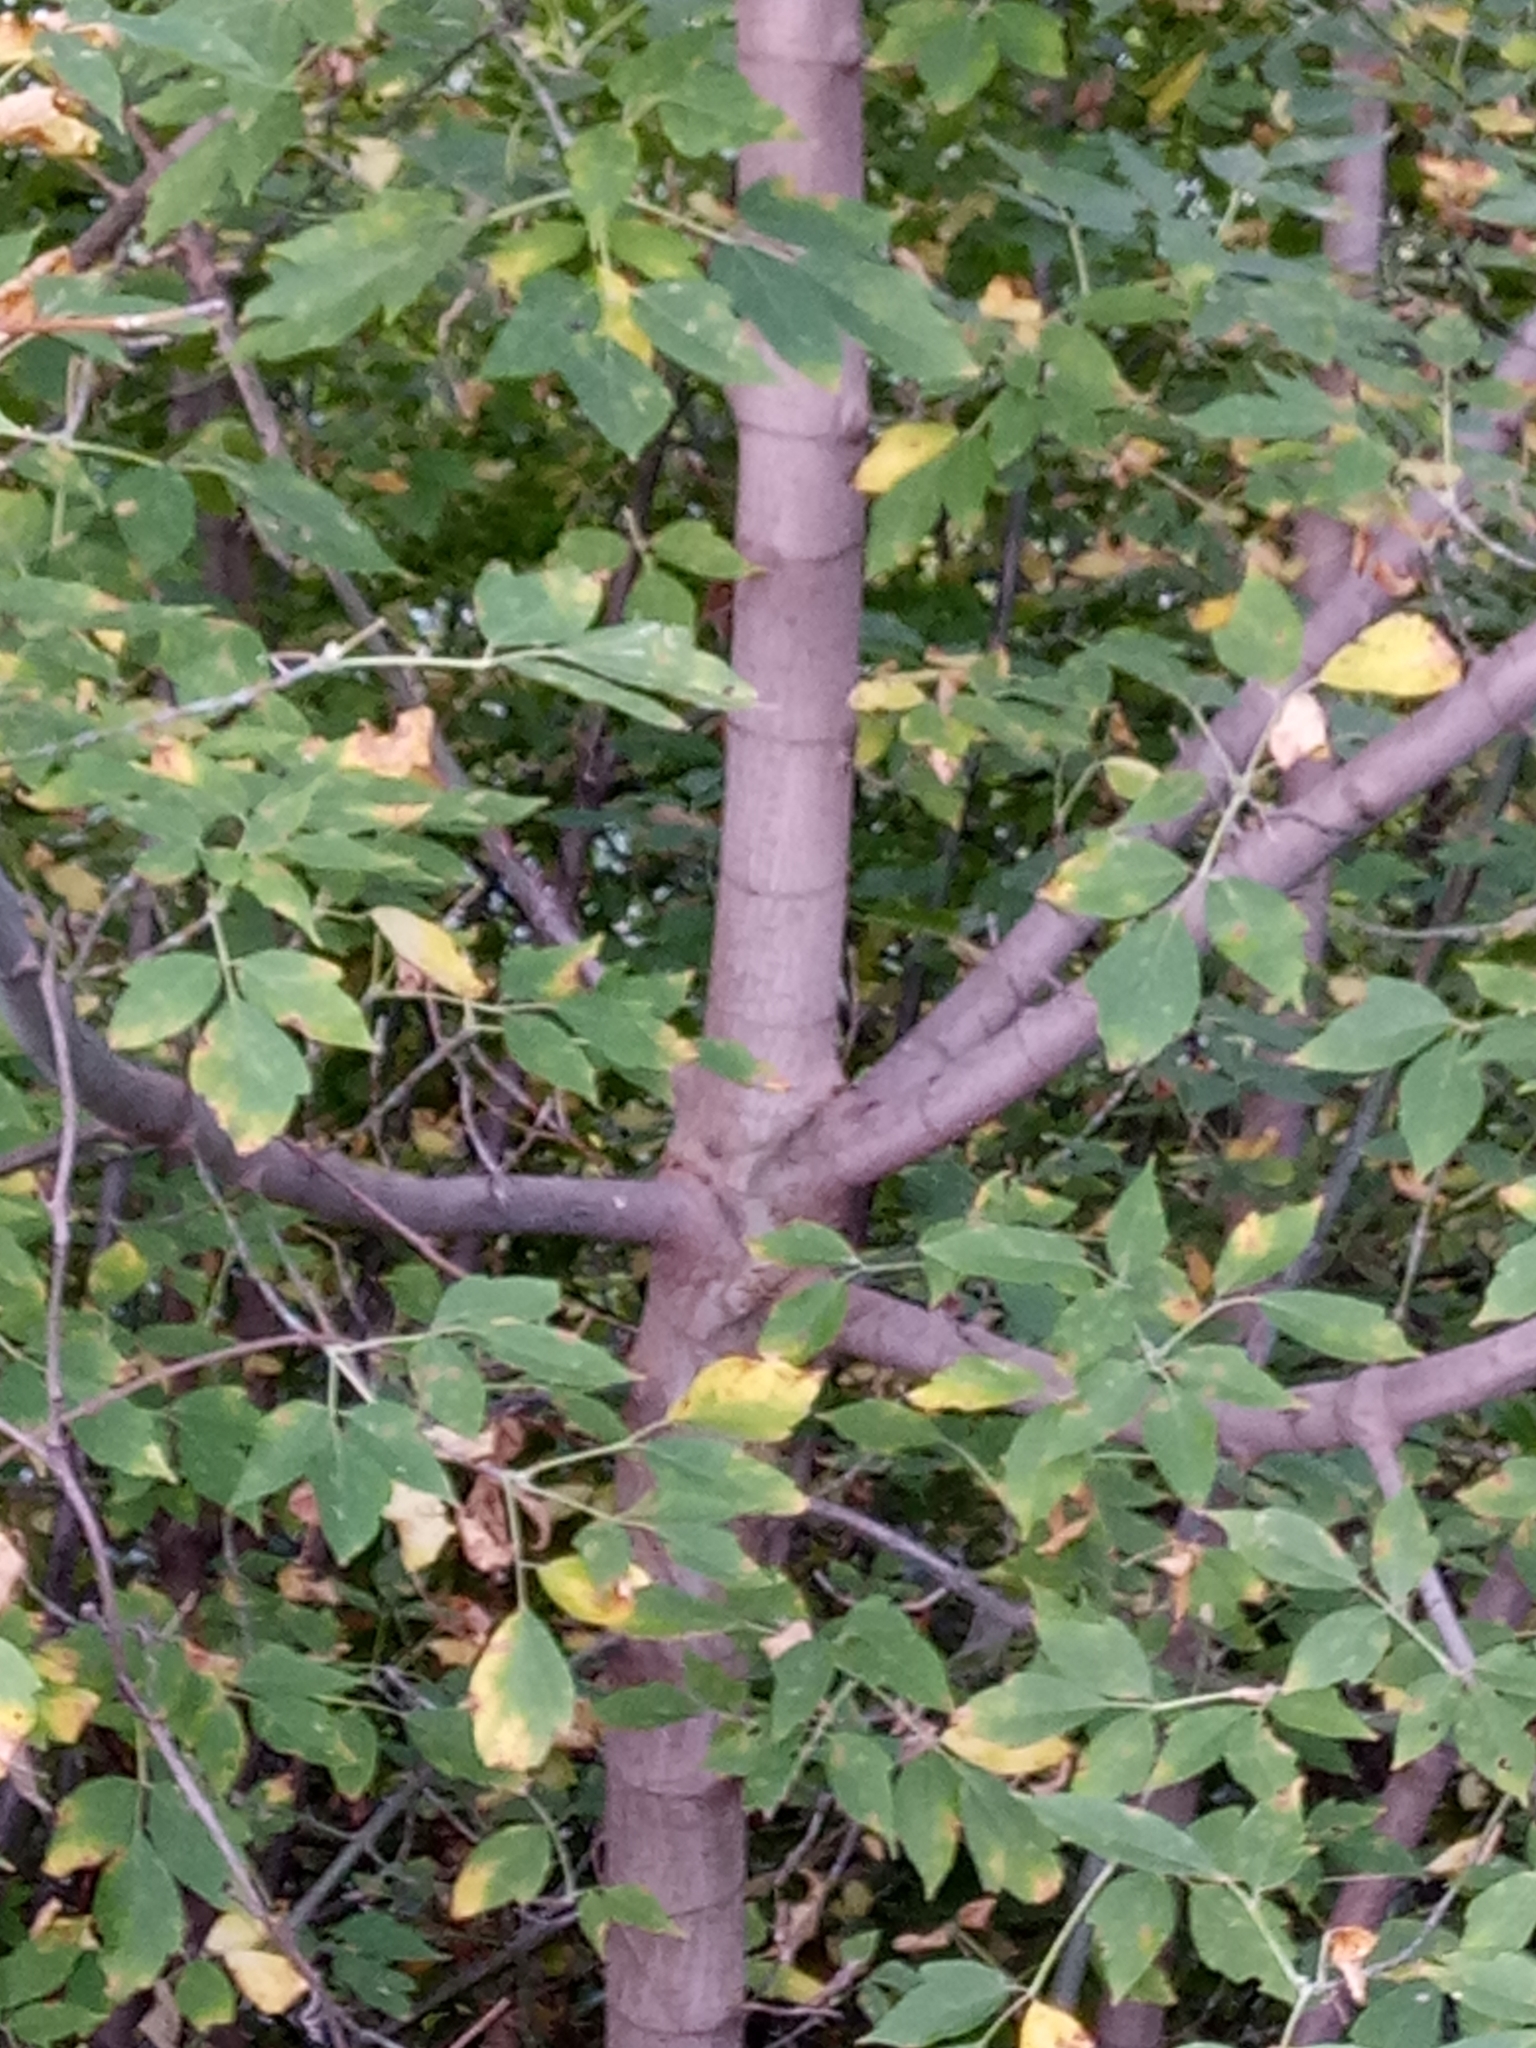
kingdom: Plantae
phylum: Tracheophyta
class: Magnoliopsida
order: Sapindales
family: Sapindaceae
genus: Acer
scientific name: Acer negundo
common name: Ashleaf maple
